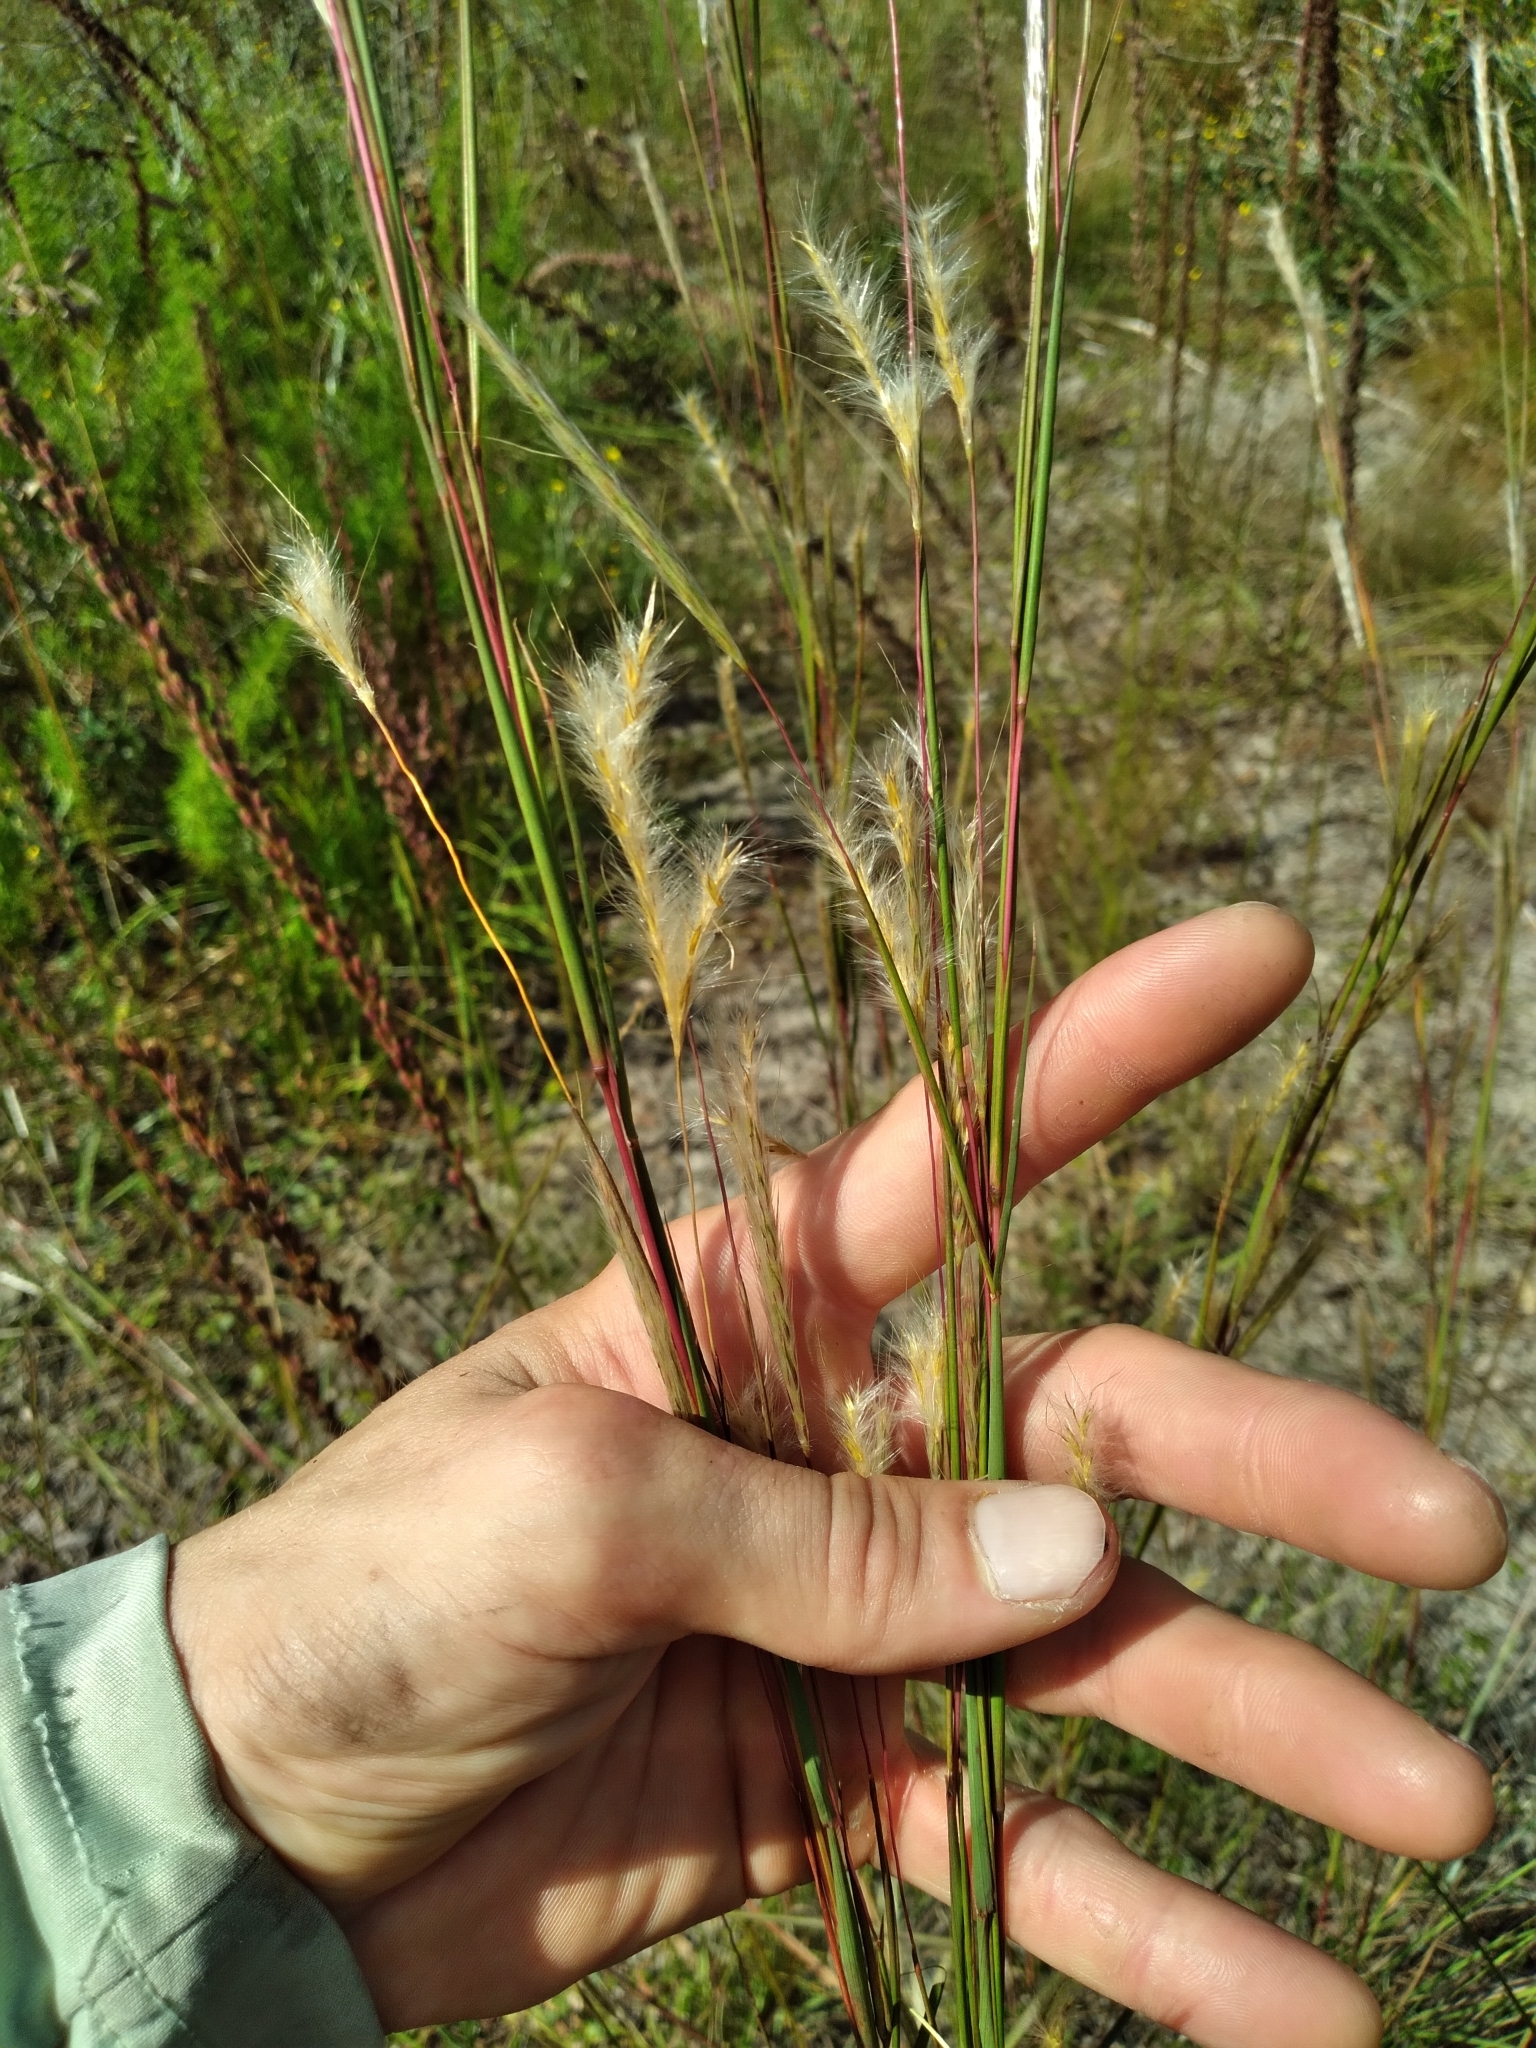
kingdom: Plantae
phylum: Tracheophyta
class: Liliopsida
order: Poales
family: Poaceae
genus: Andropogon
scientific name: Andropogon cabanisii
